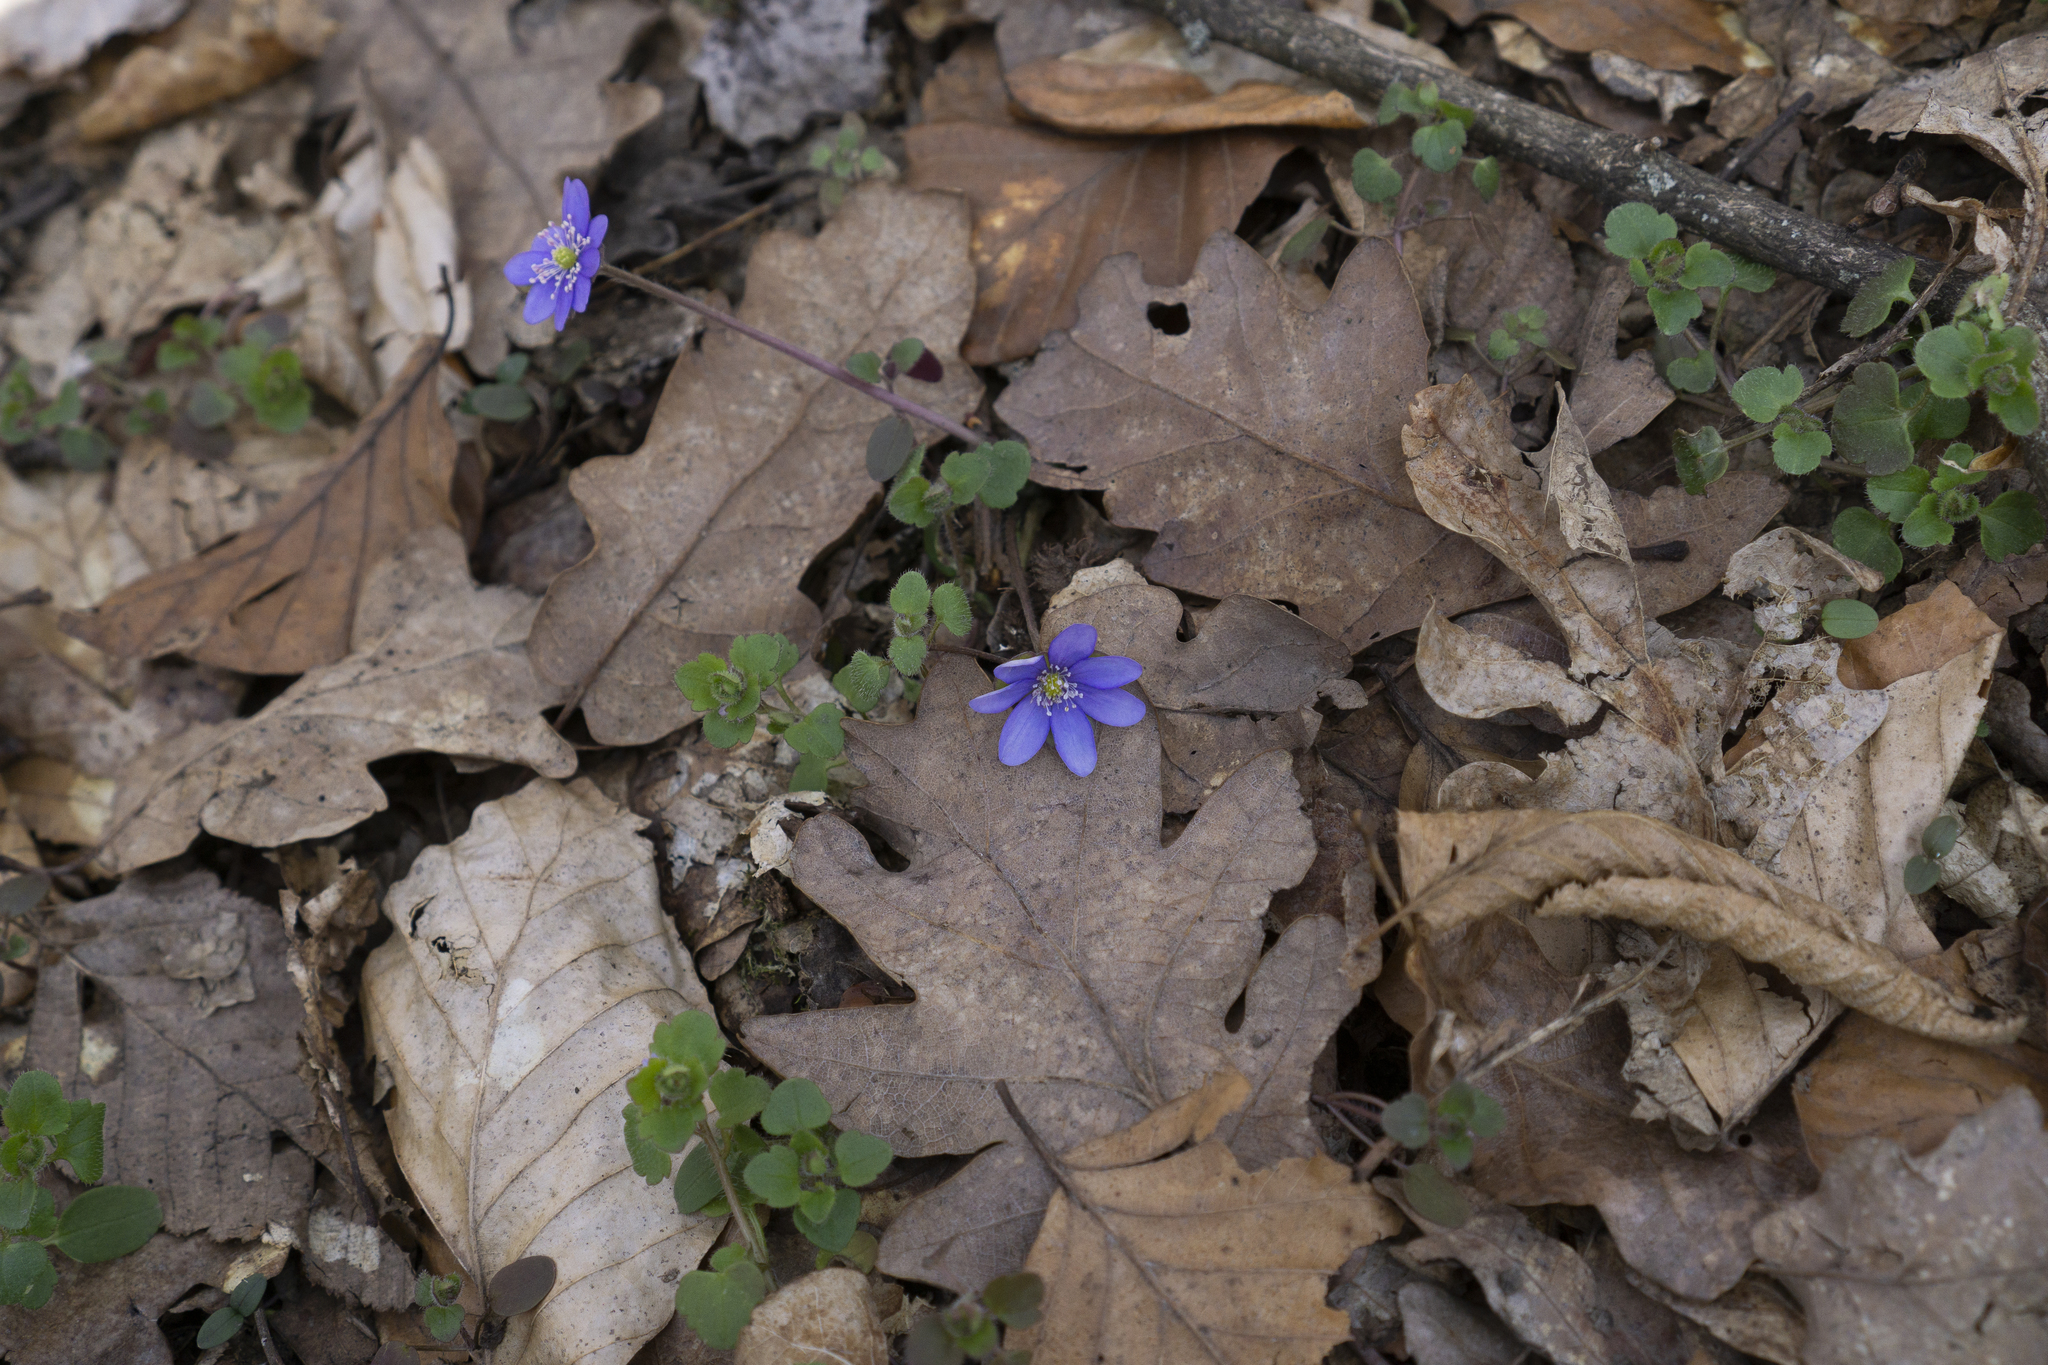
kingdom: Plantae
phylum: Tracheophyta
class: Magnoliopsida
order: Ranunculales
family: Ranunculaceae
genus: Hepatica
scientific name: Hepatica nobilis
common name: Liverleaf
